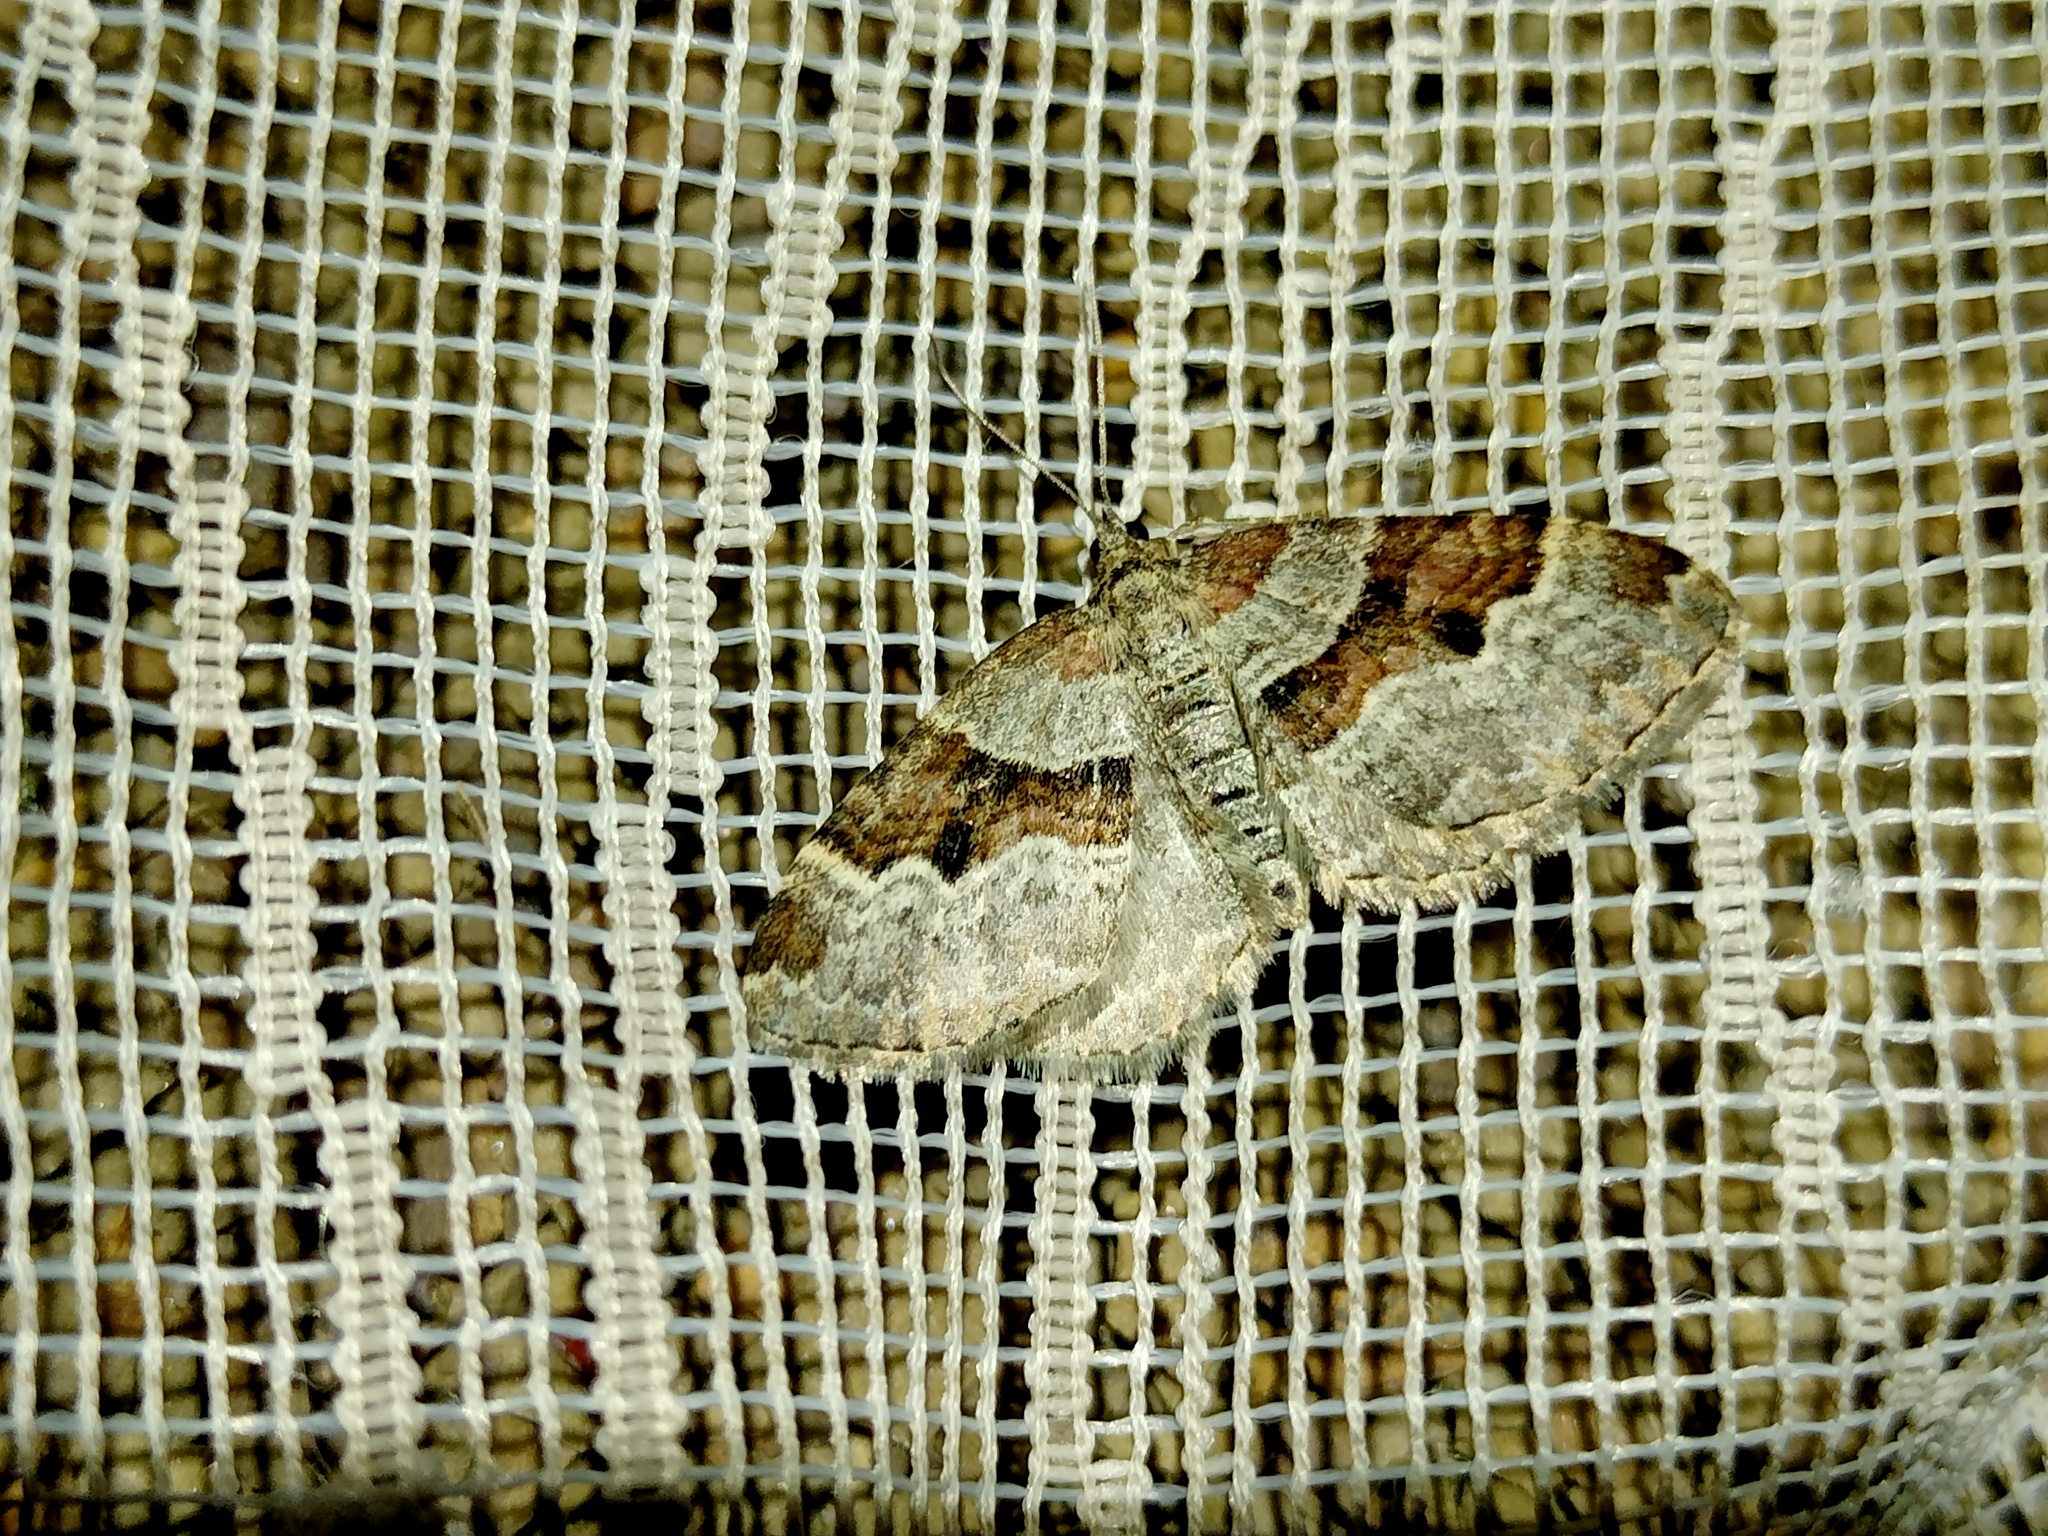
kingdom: Animalia
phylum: Arthropoda
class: Insecta
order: Lepidoptera
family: Geometridae
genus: Xanthorhoe
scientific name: Xanthorhoe designata
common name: Flame carpet
